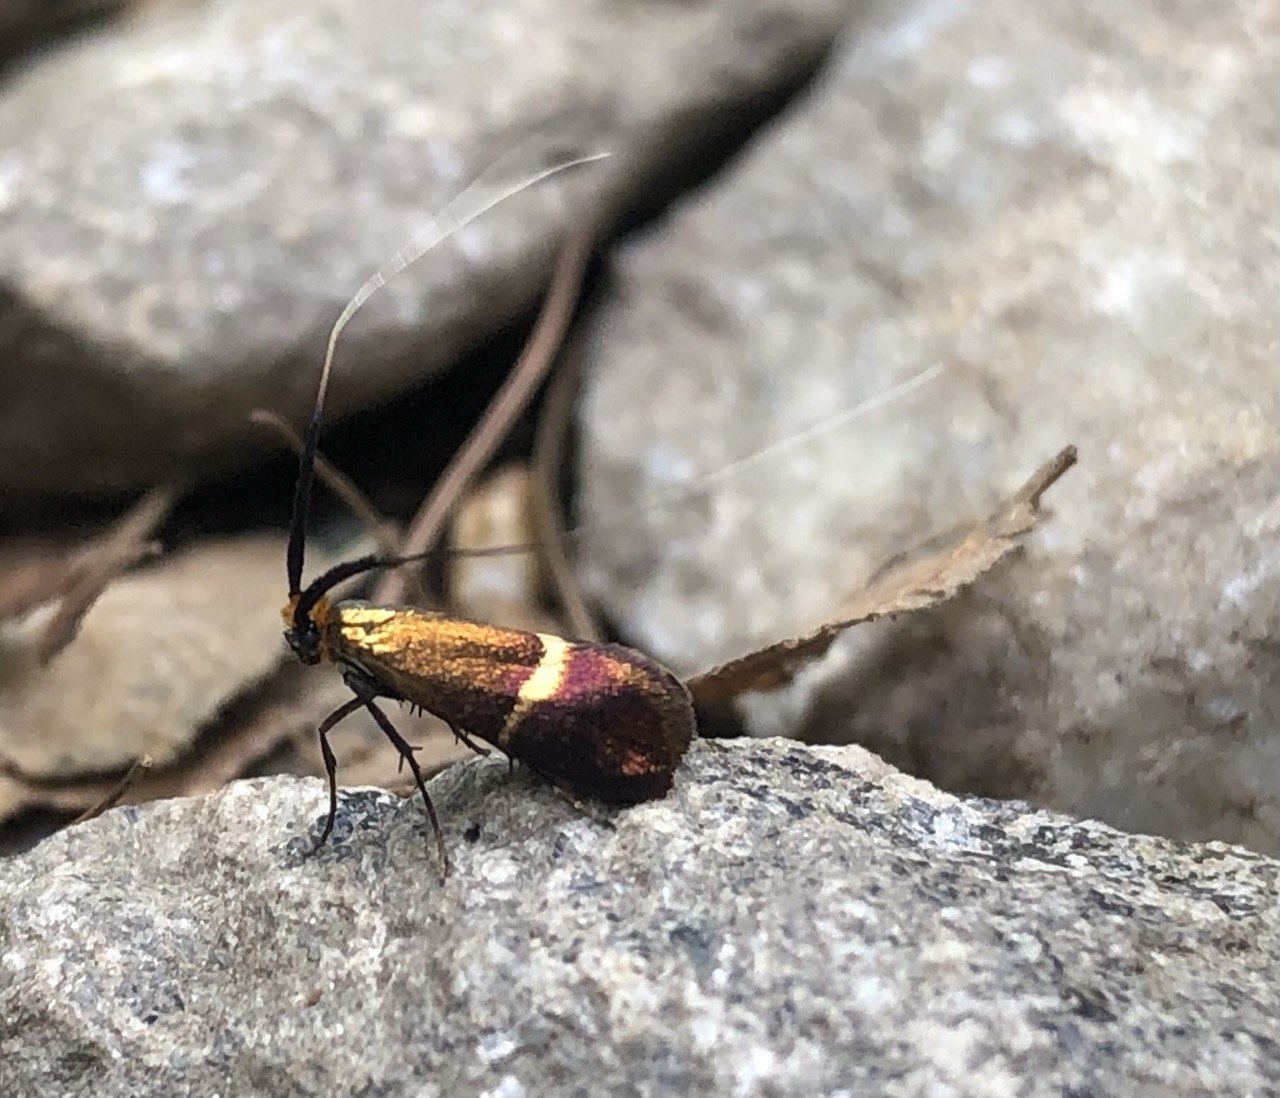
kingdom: Animalia
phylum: Arthropoda
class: Insecta
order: Lepidoptera
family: Adelidae
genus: Adela
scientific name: Adela australis
